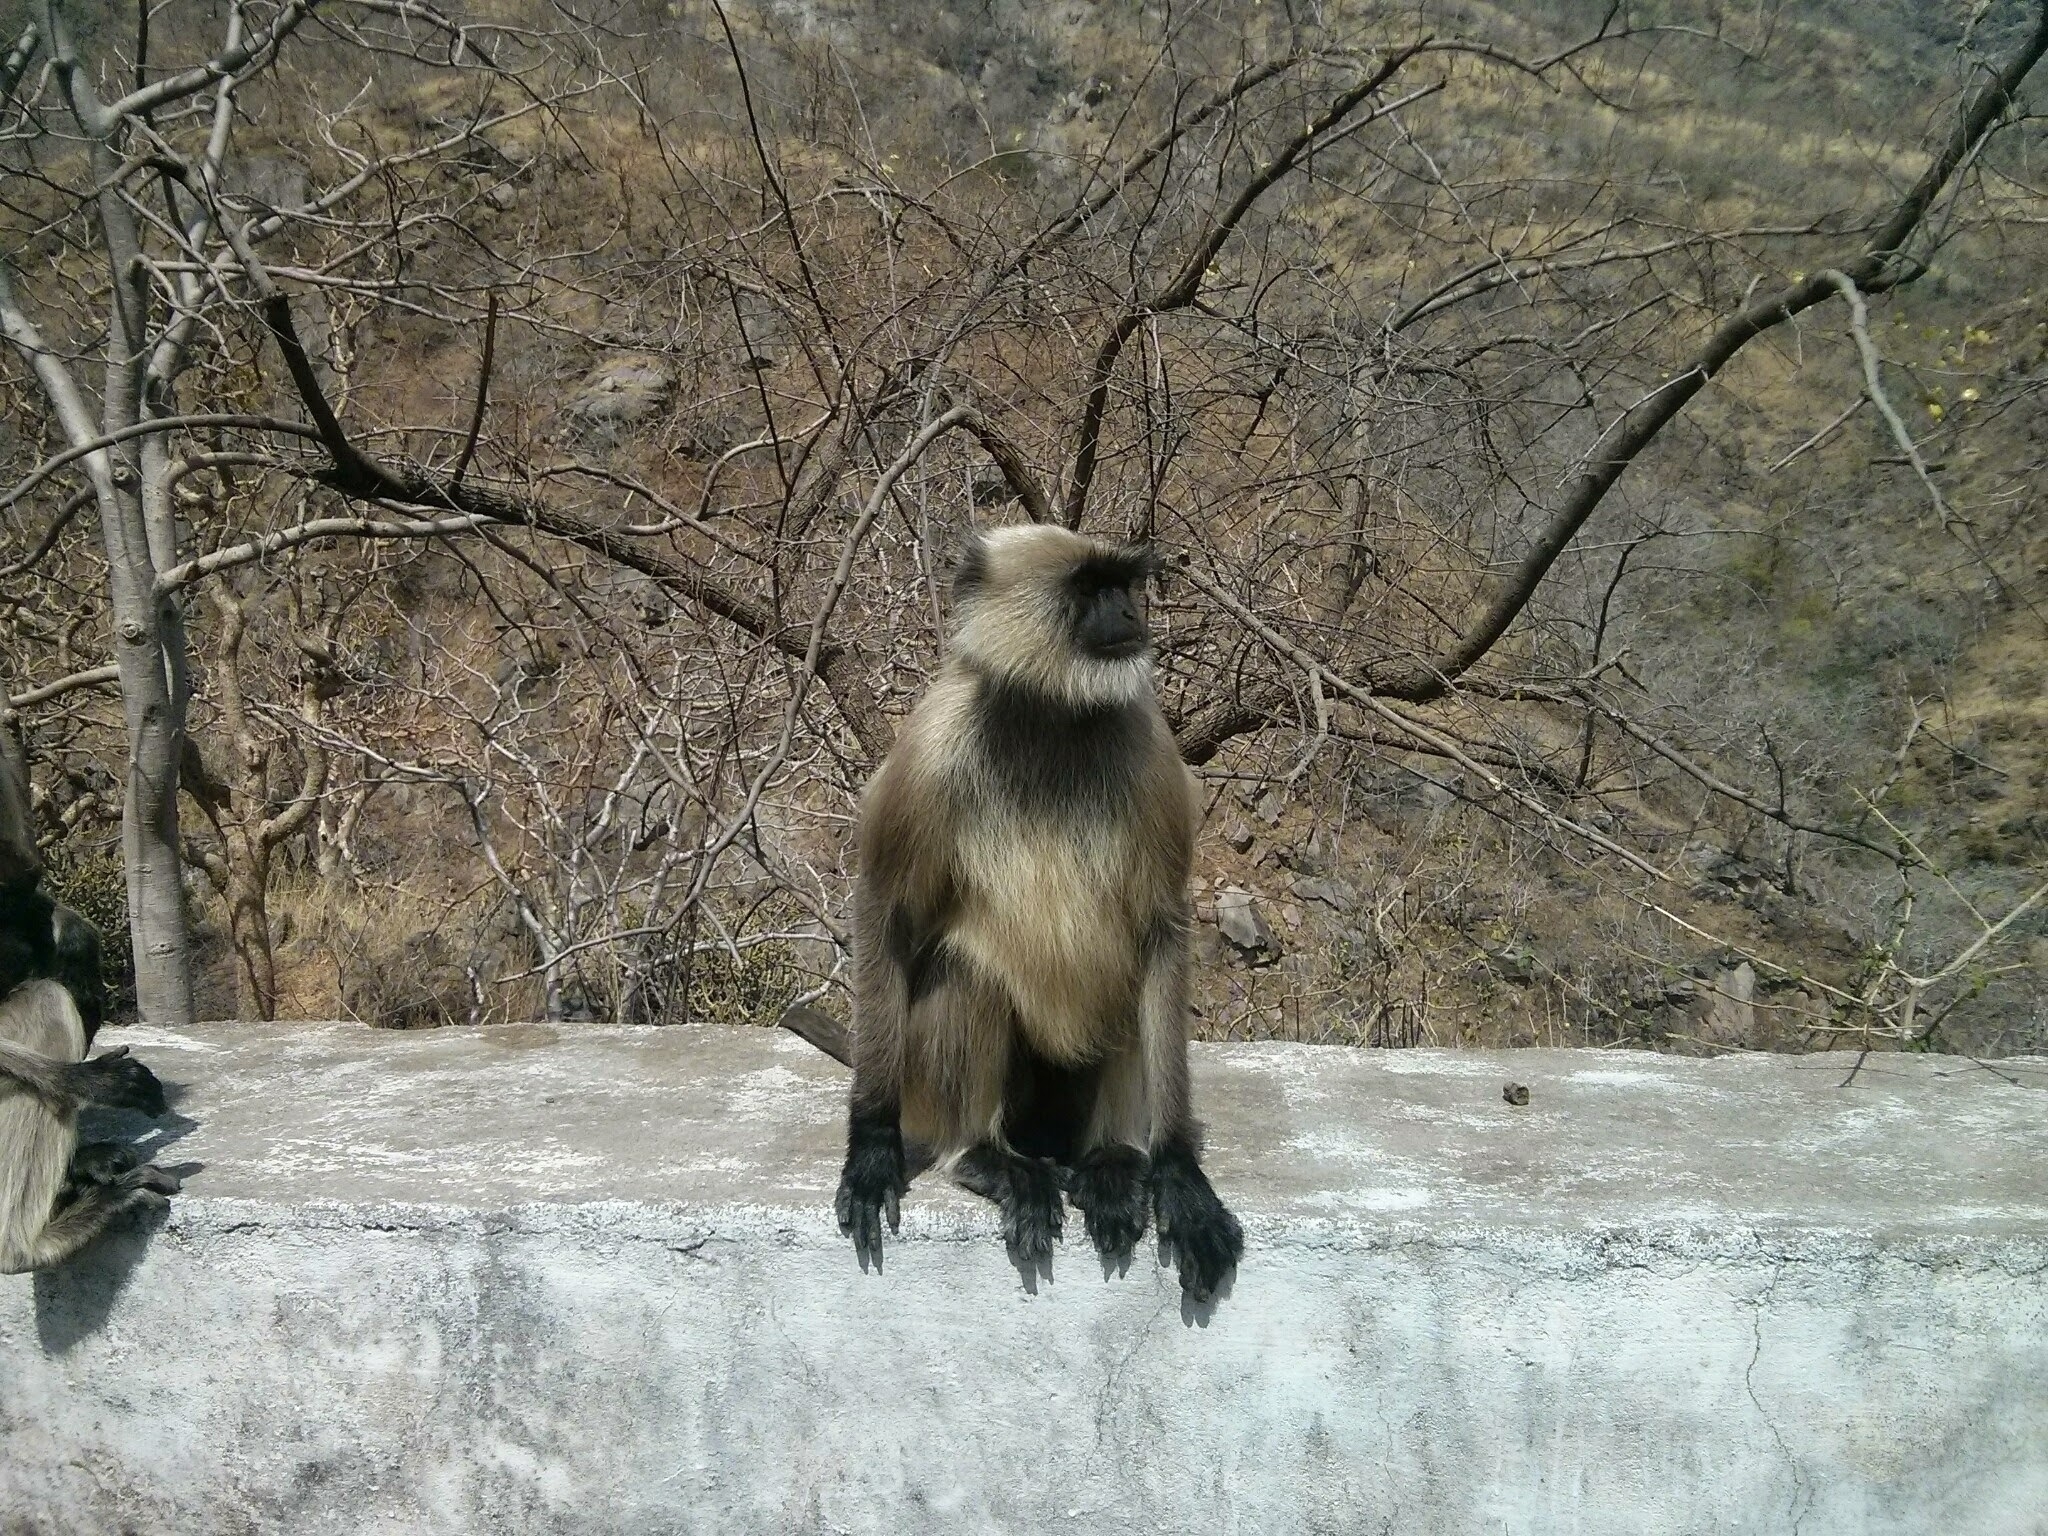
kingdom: Animalia
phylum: Chordata
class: Mammalia
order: Primates
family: Cercopithecidae
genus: Semnopithecus
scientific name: Semnopithecus entellus
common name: Northern plains gray langur
